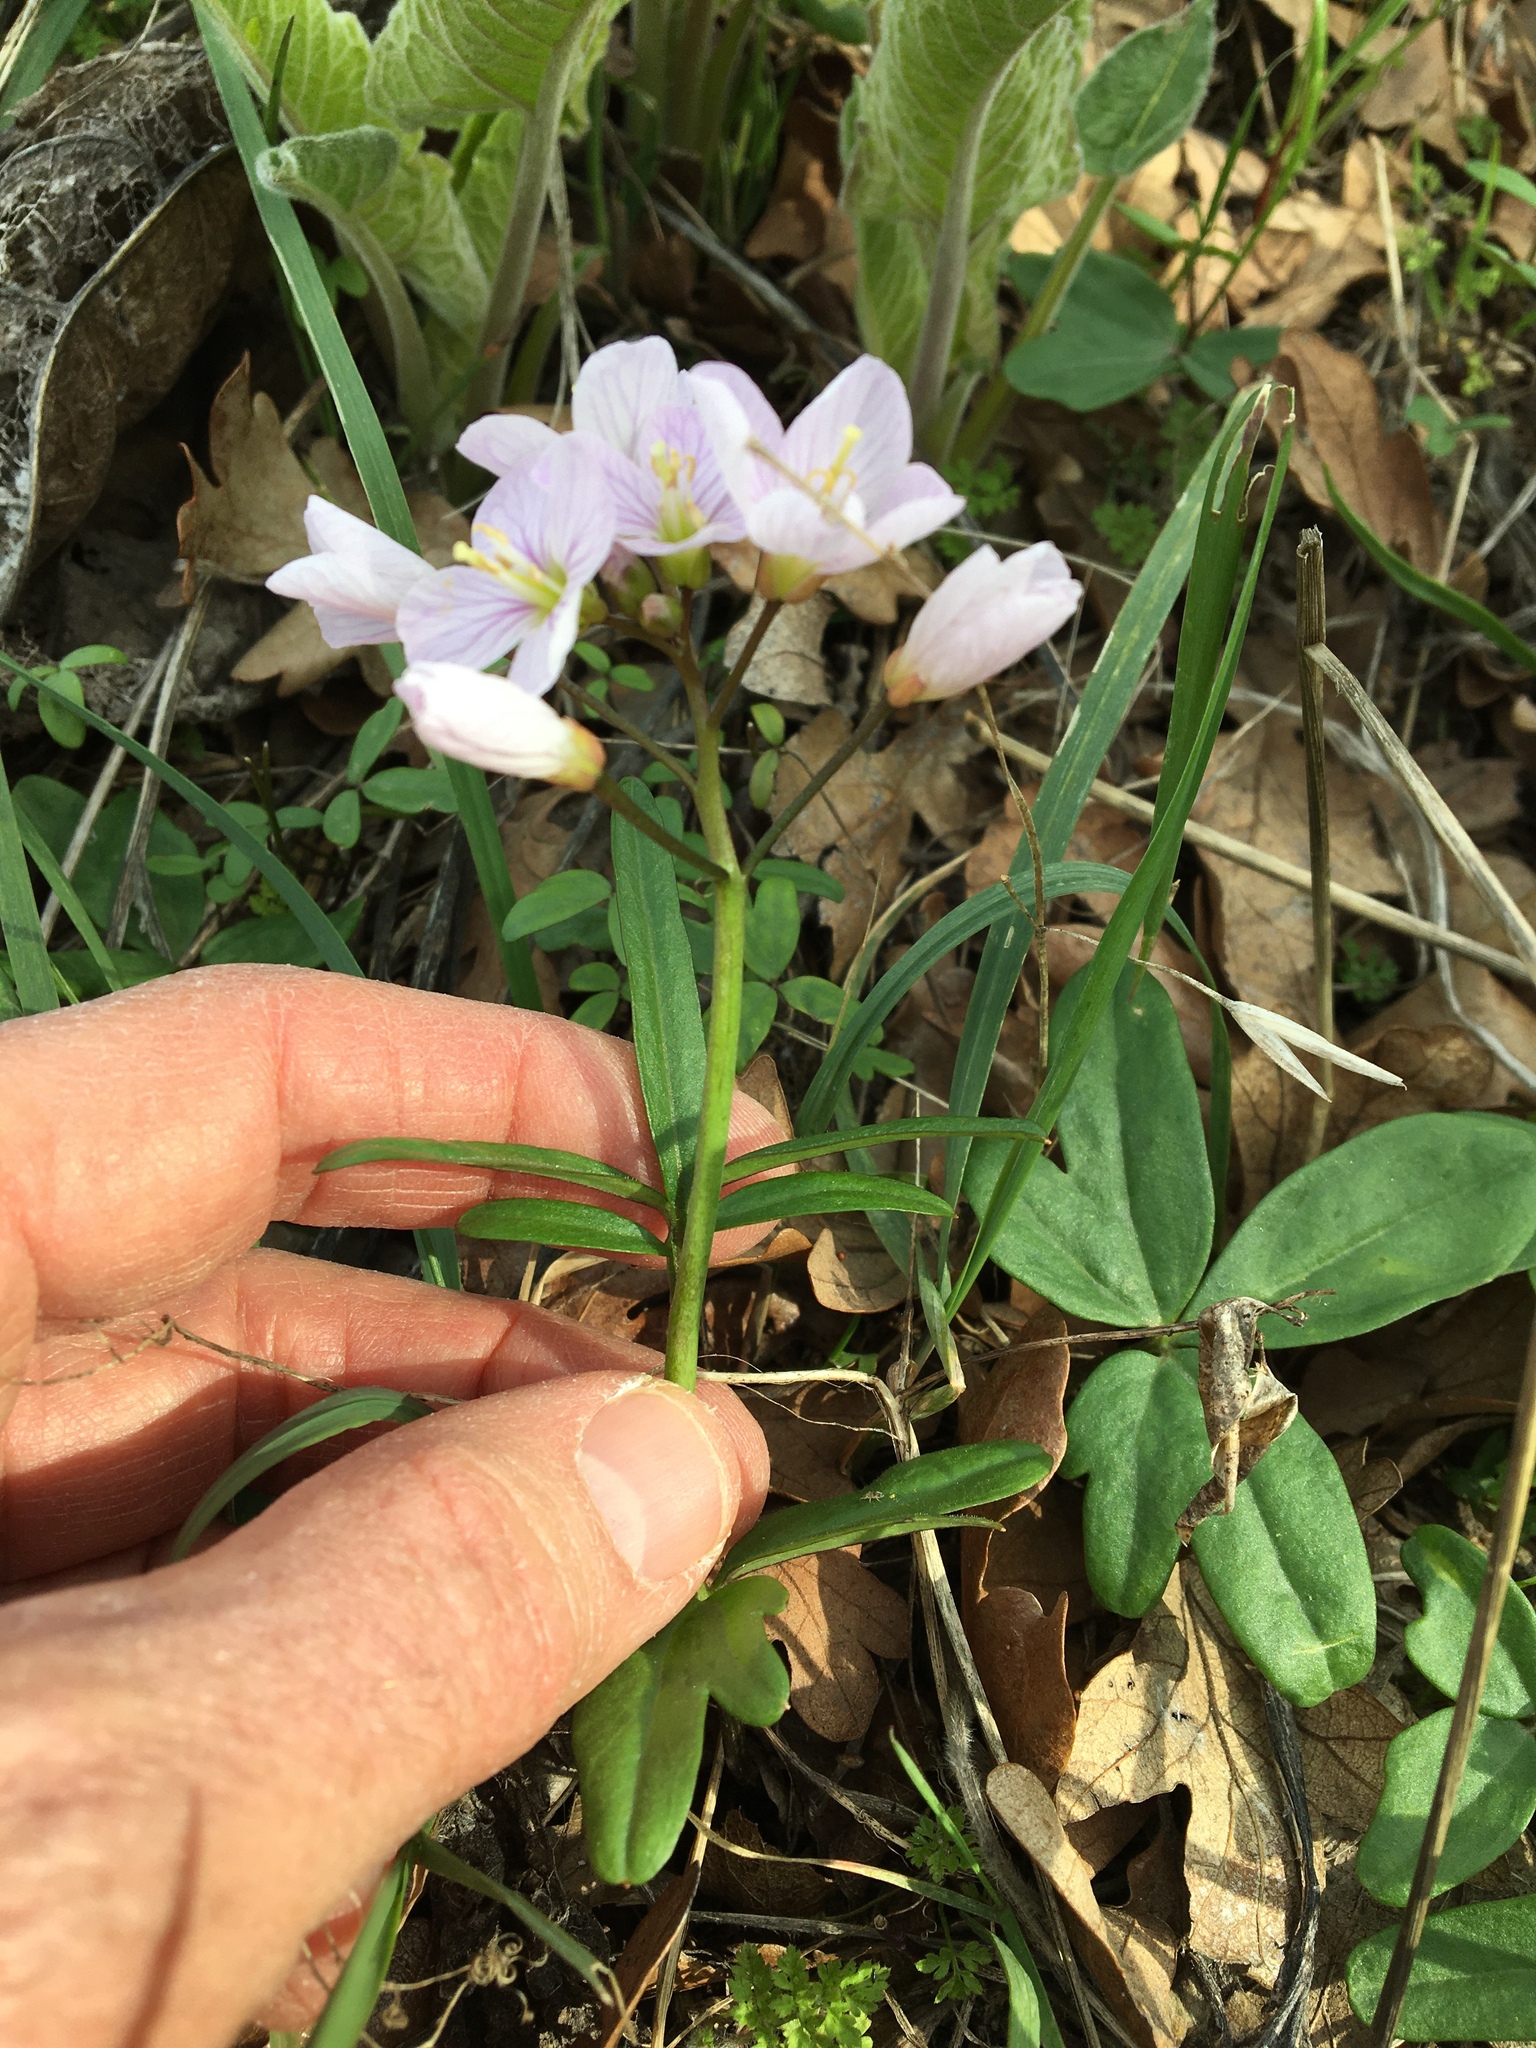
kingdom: Plantae
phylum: Tracheophyta
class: Magnoliopsida
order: Brassicales
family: Brassicaceae
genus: Cardamine
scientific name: Cardamine nuttallii
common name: Nuttall's toothwort
